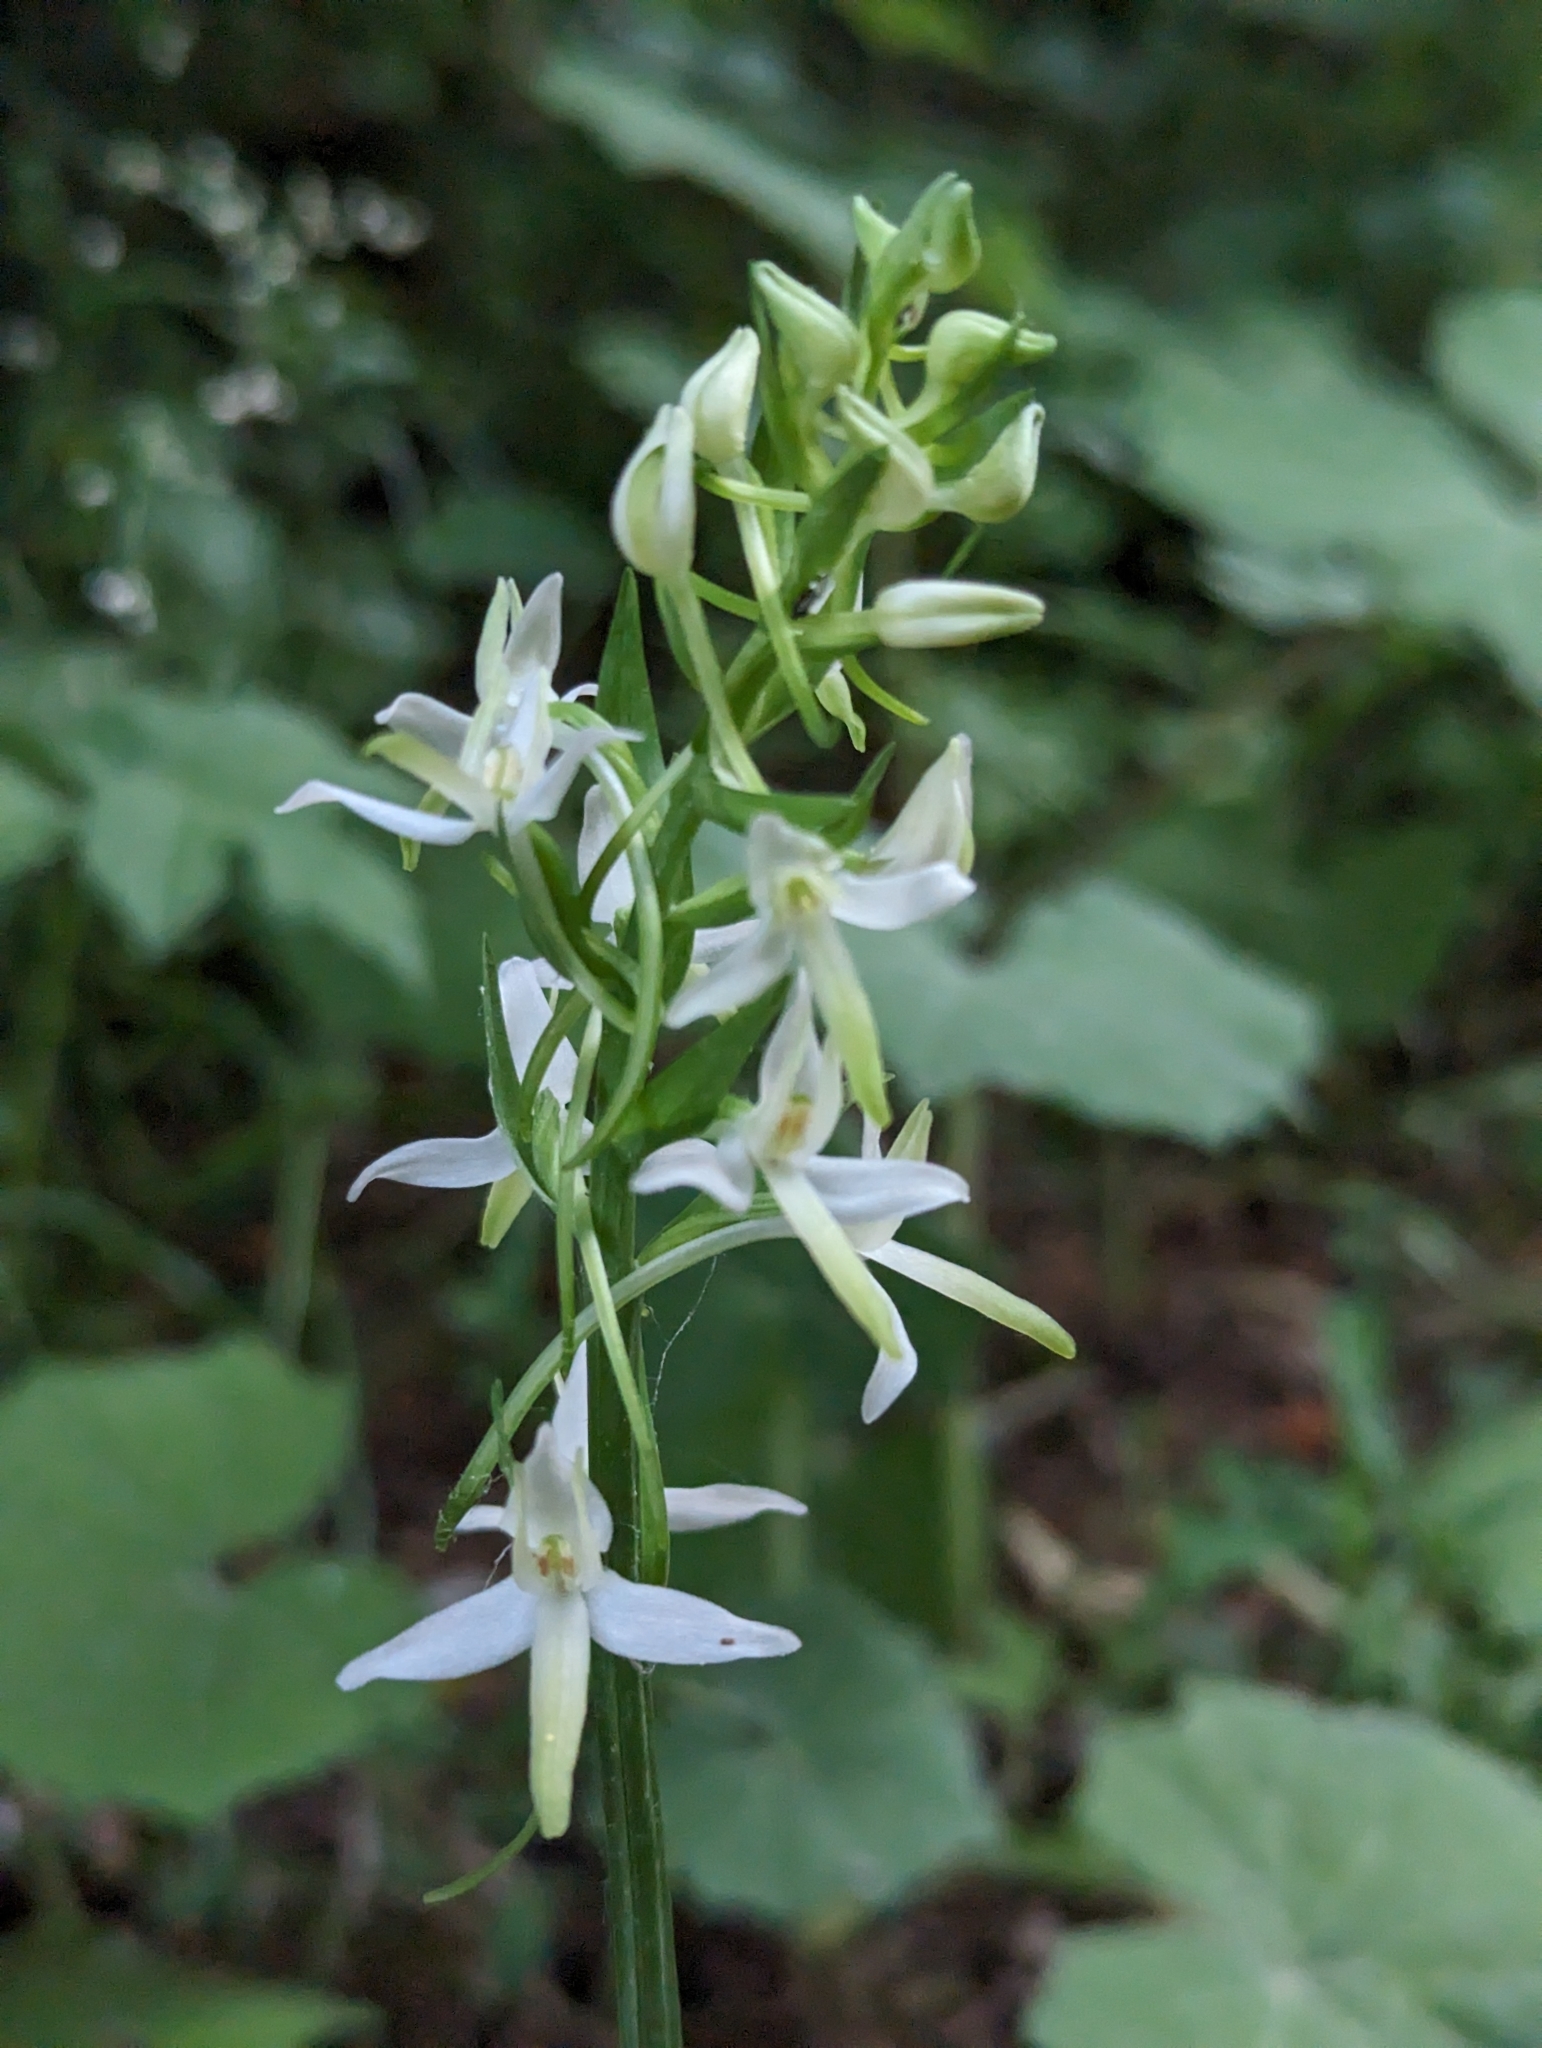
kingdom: Plantae
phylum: Tracheophyta
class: Liliopsida
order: Asparagales
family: Orchidaceae
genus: Platanthera
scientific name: Platanthera bifolia
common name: Lesser butterfly-orchid
